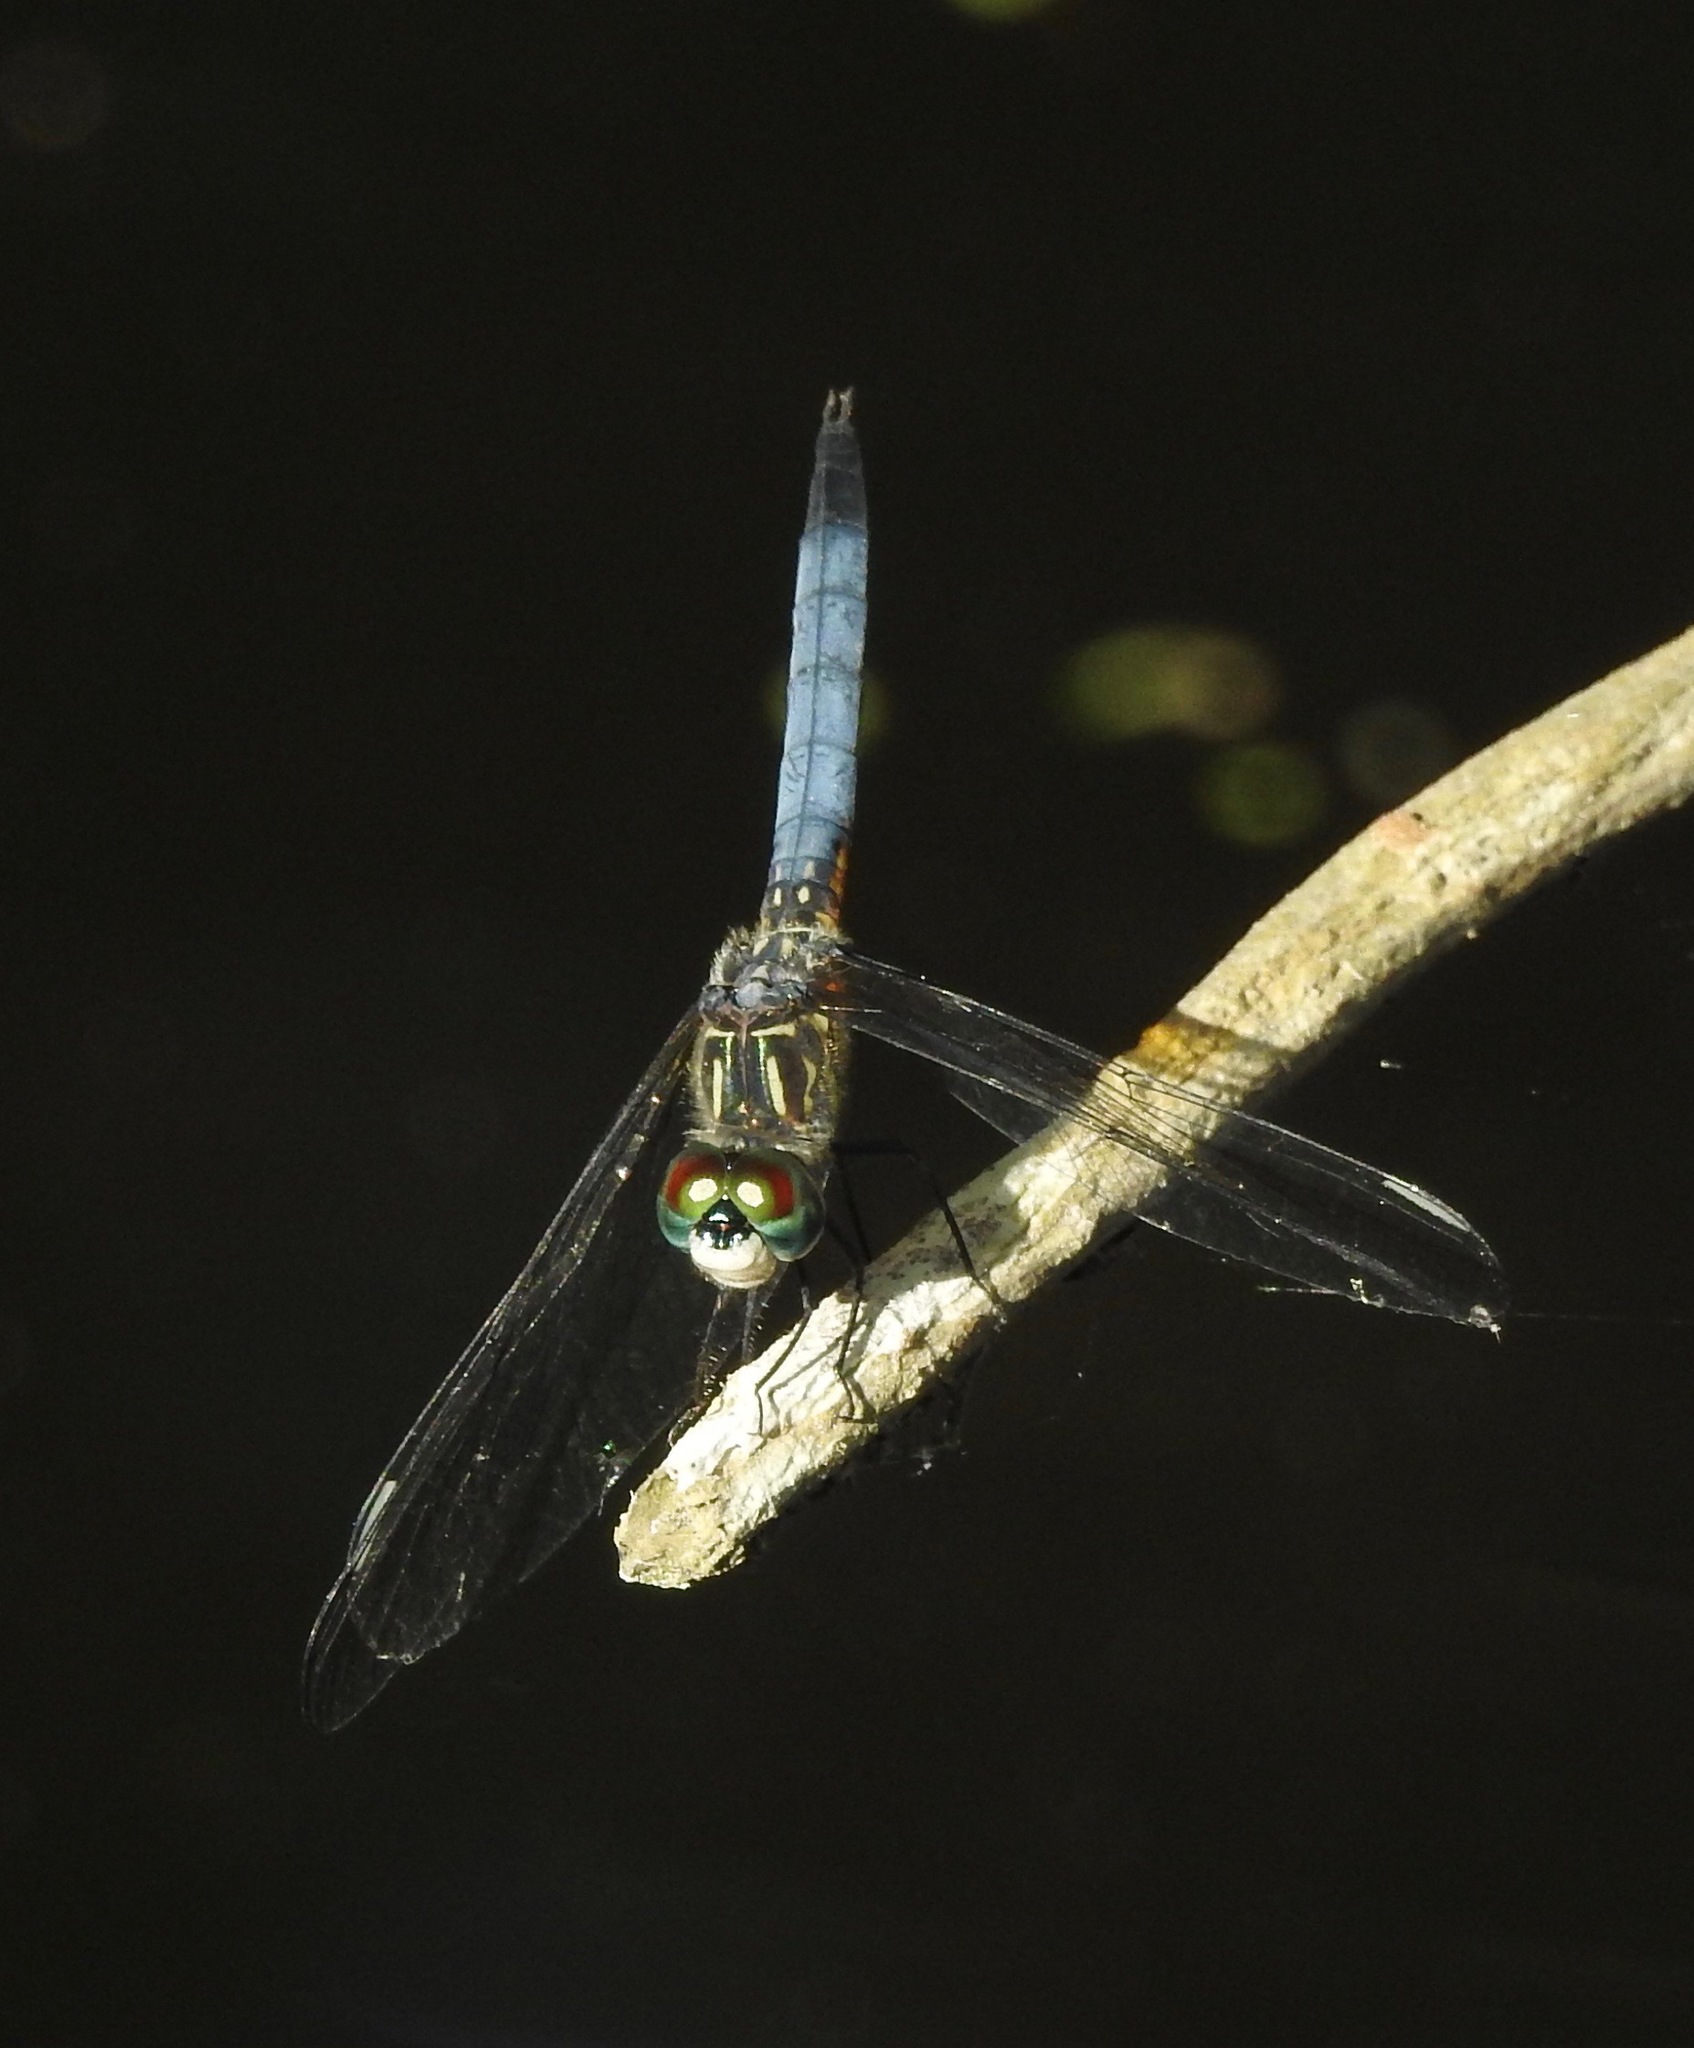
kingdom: Animalia
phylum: Arthropoda
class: Insecta
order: Odonata
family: Libellulidae
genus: Pachydiplax
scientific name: Pachydiplax longipennis
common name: Blue dasher
